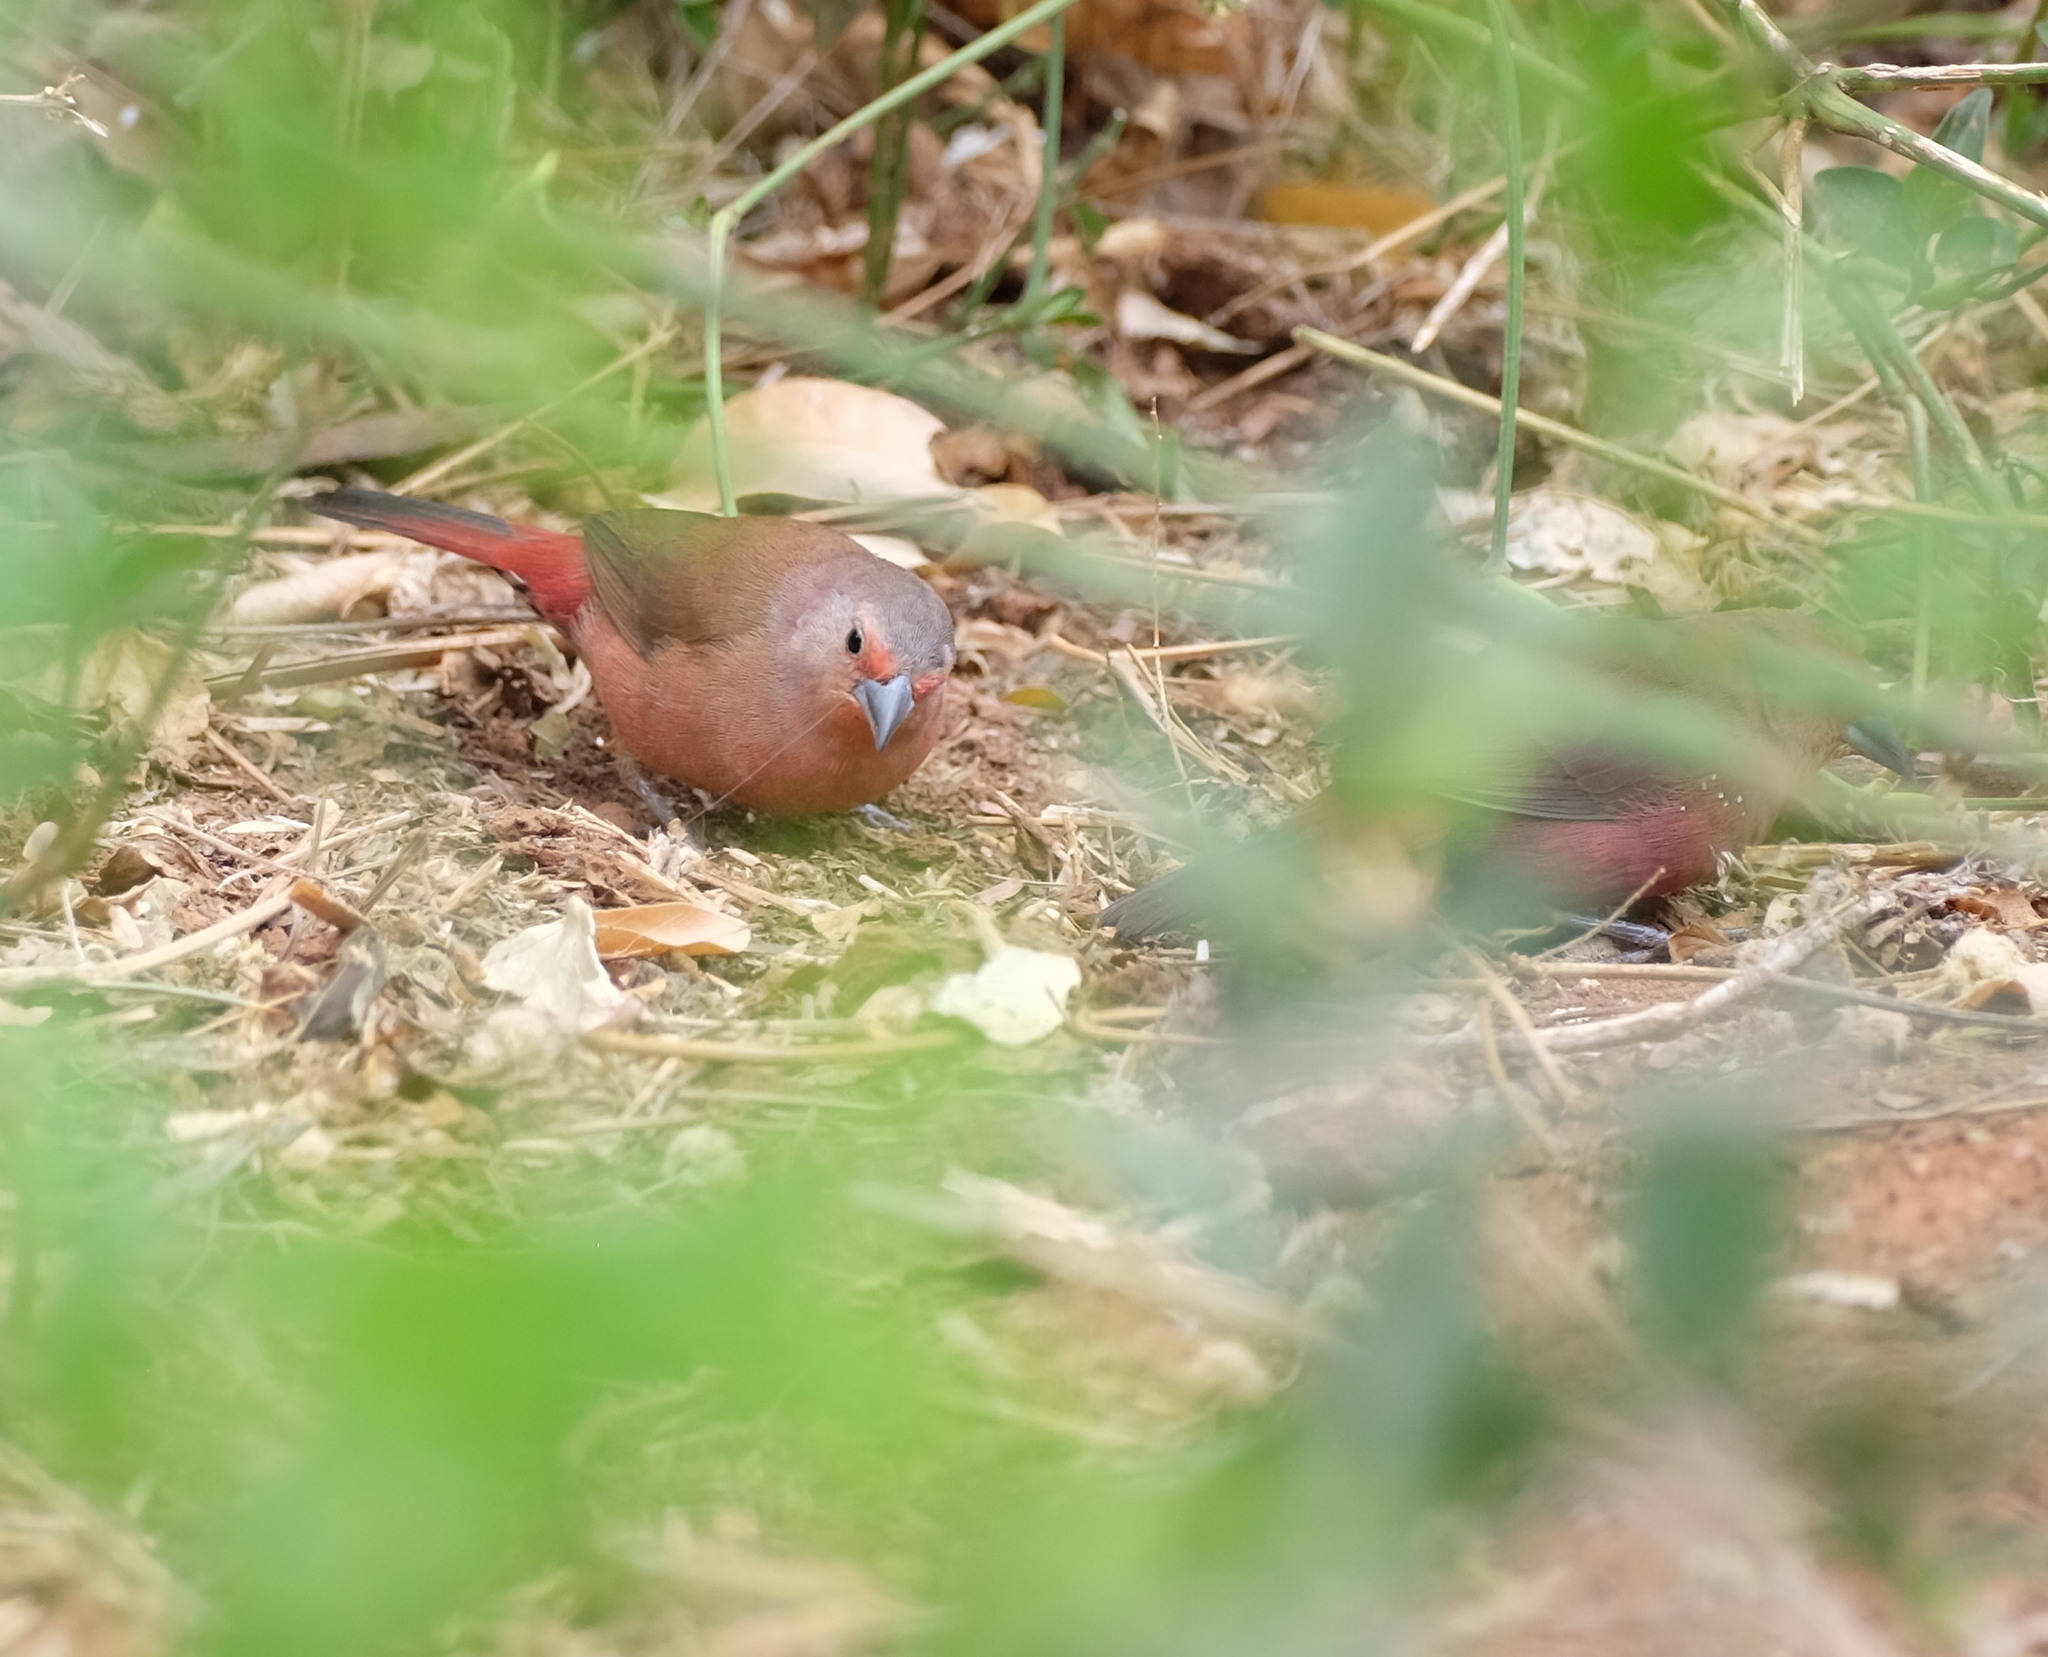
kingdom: Animalia
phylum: Chordata
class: Aves
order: Passeriformes
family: Estrildidae
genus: Lagonosticta
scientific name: Lagonosticta rhodopareia
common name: Jameson's firefinch
